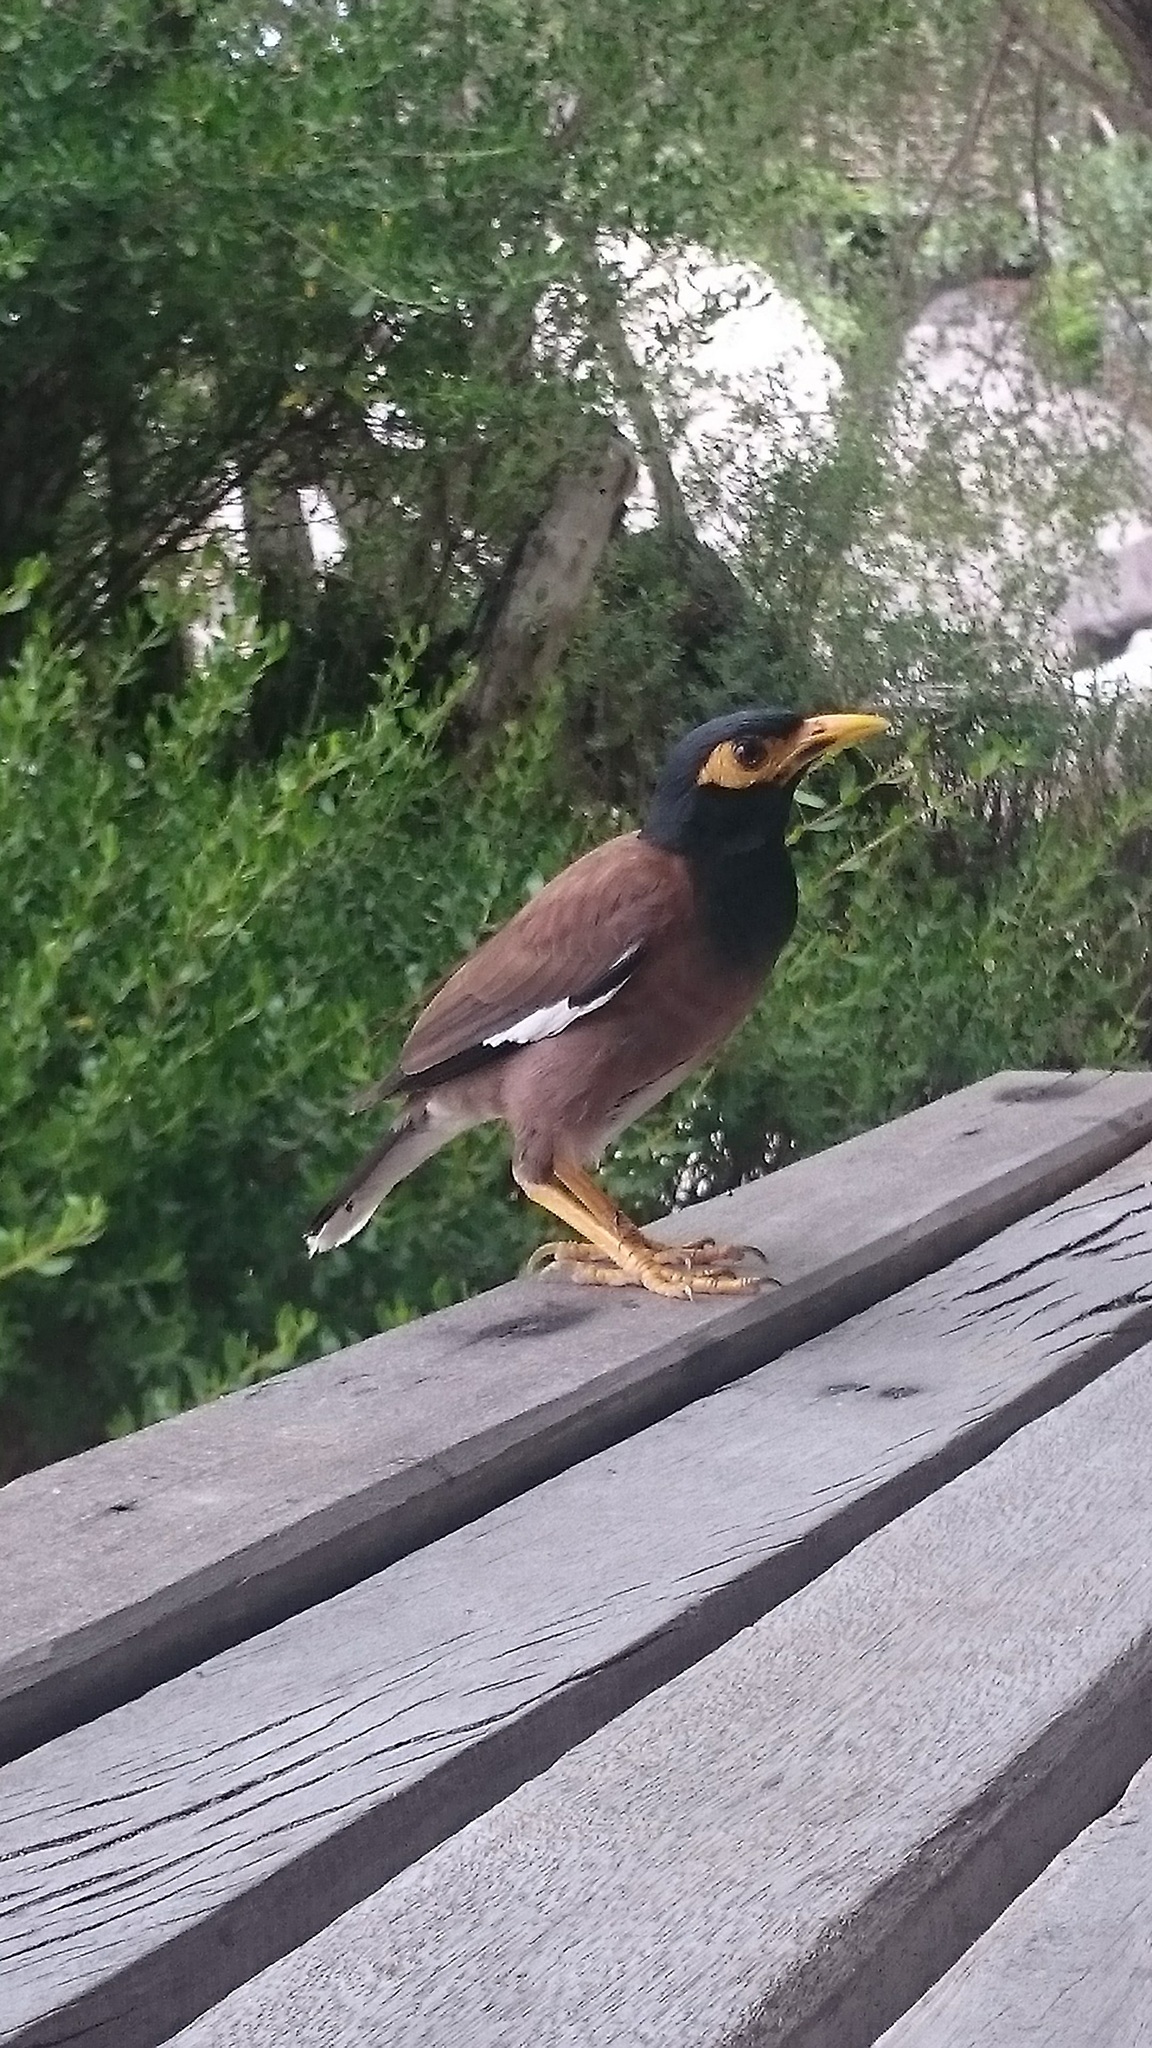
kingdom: Animalia
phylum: Chordata
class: Aves
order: Passeriformes
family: Sturnidae
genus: Acridotheres
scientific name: Acridotheres tristis
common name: Common myna
